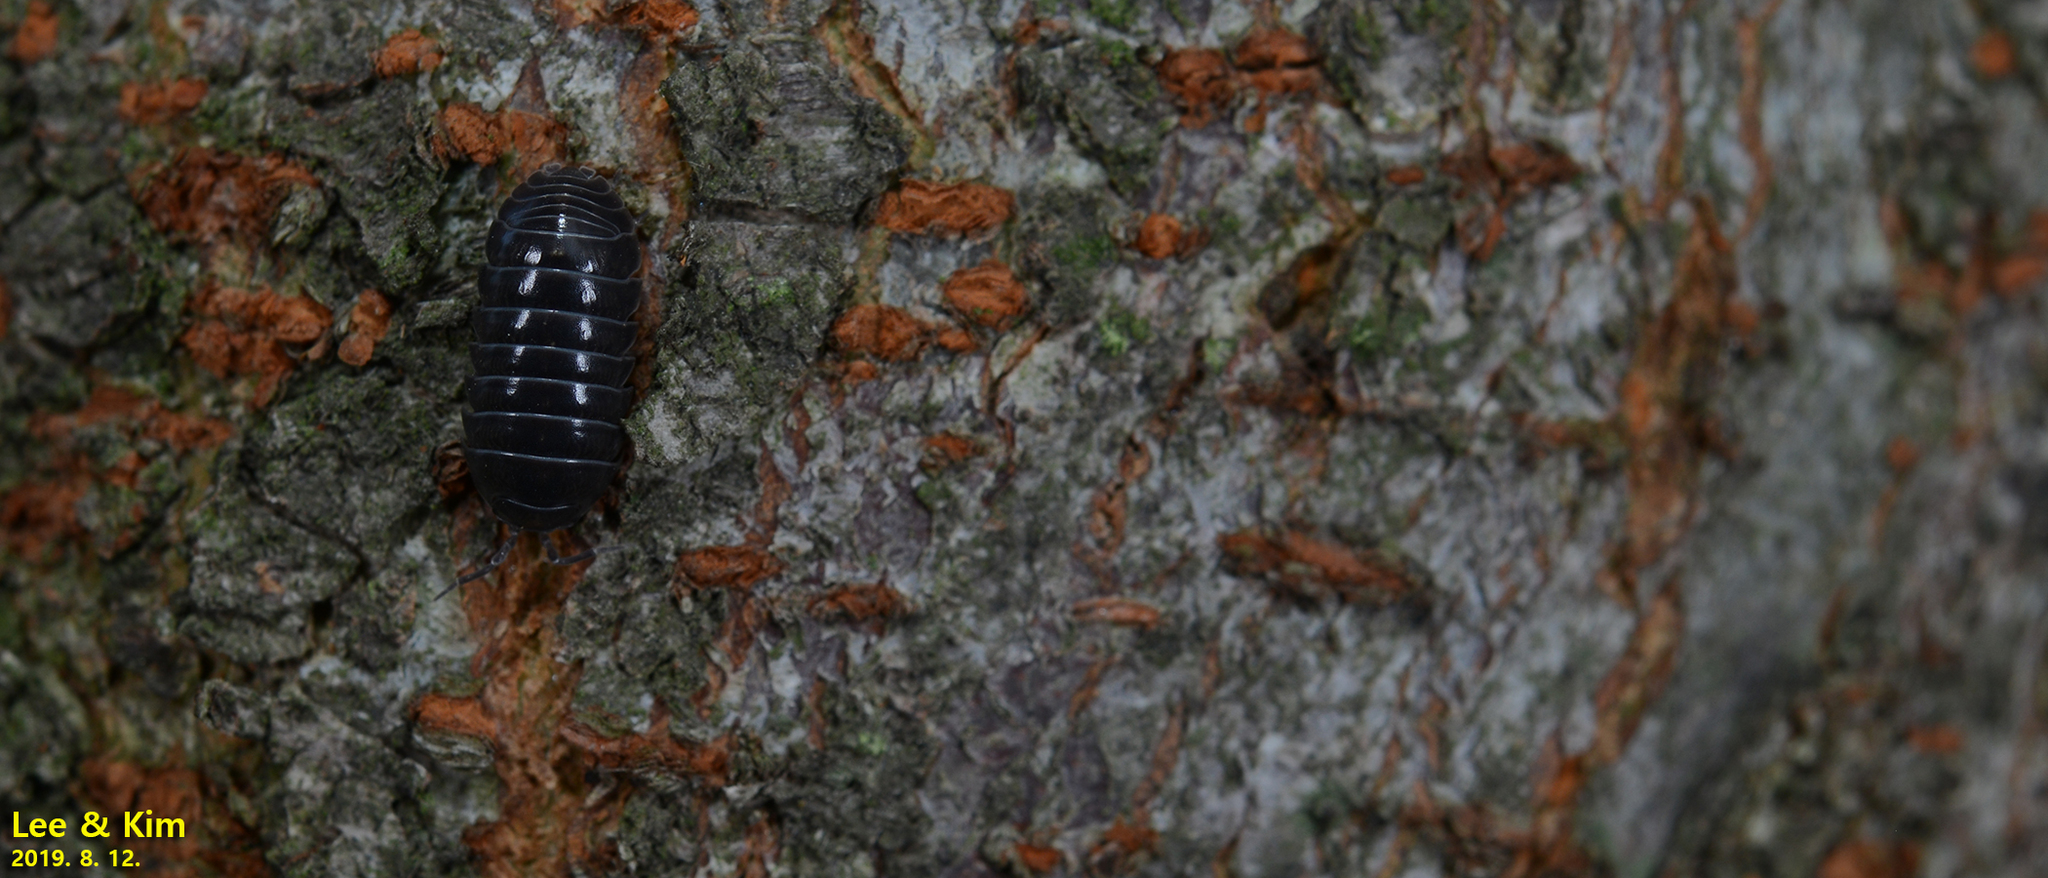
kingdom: Animalia
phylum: Arthropoda
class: Malacostraca
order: Isopoda
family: Armadillidiidae
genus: Armadillidium
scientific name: Armadillidium vulgare
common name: Common pill woodlouse
